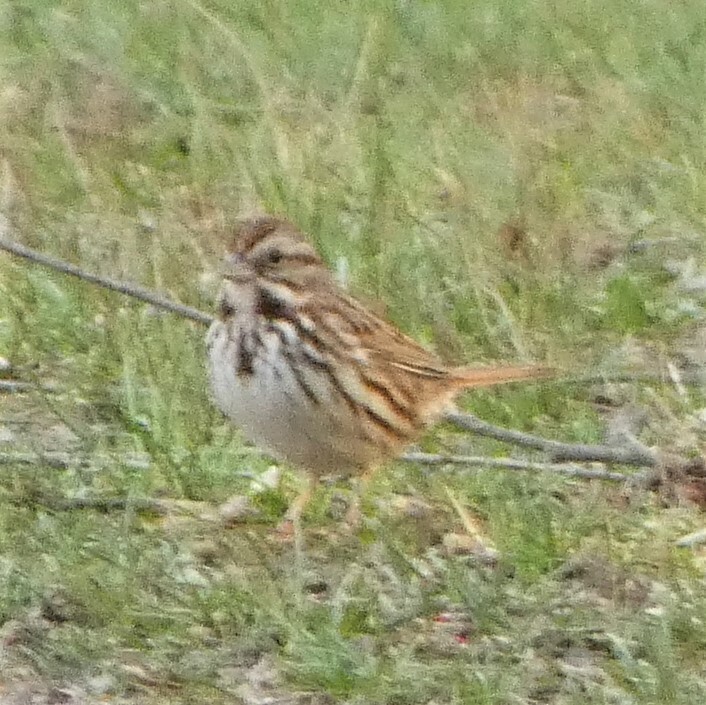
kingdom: Animalia
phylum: Chordata
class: Aves
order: Passeriformes
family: Passerellidae
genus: Melospiza
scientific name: Melospiza melodia
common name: Song sparrow
